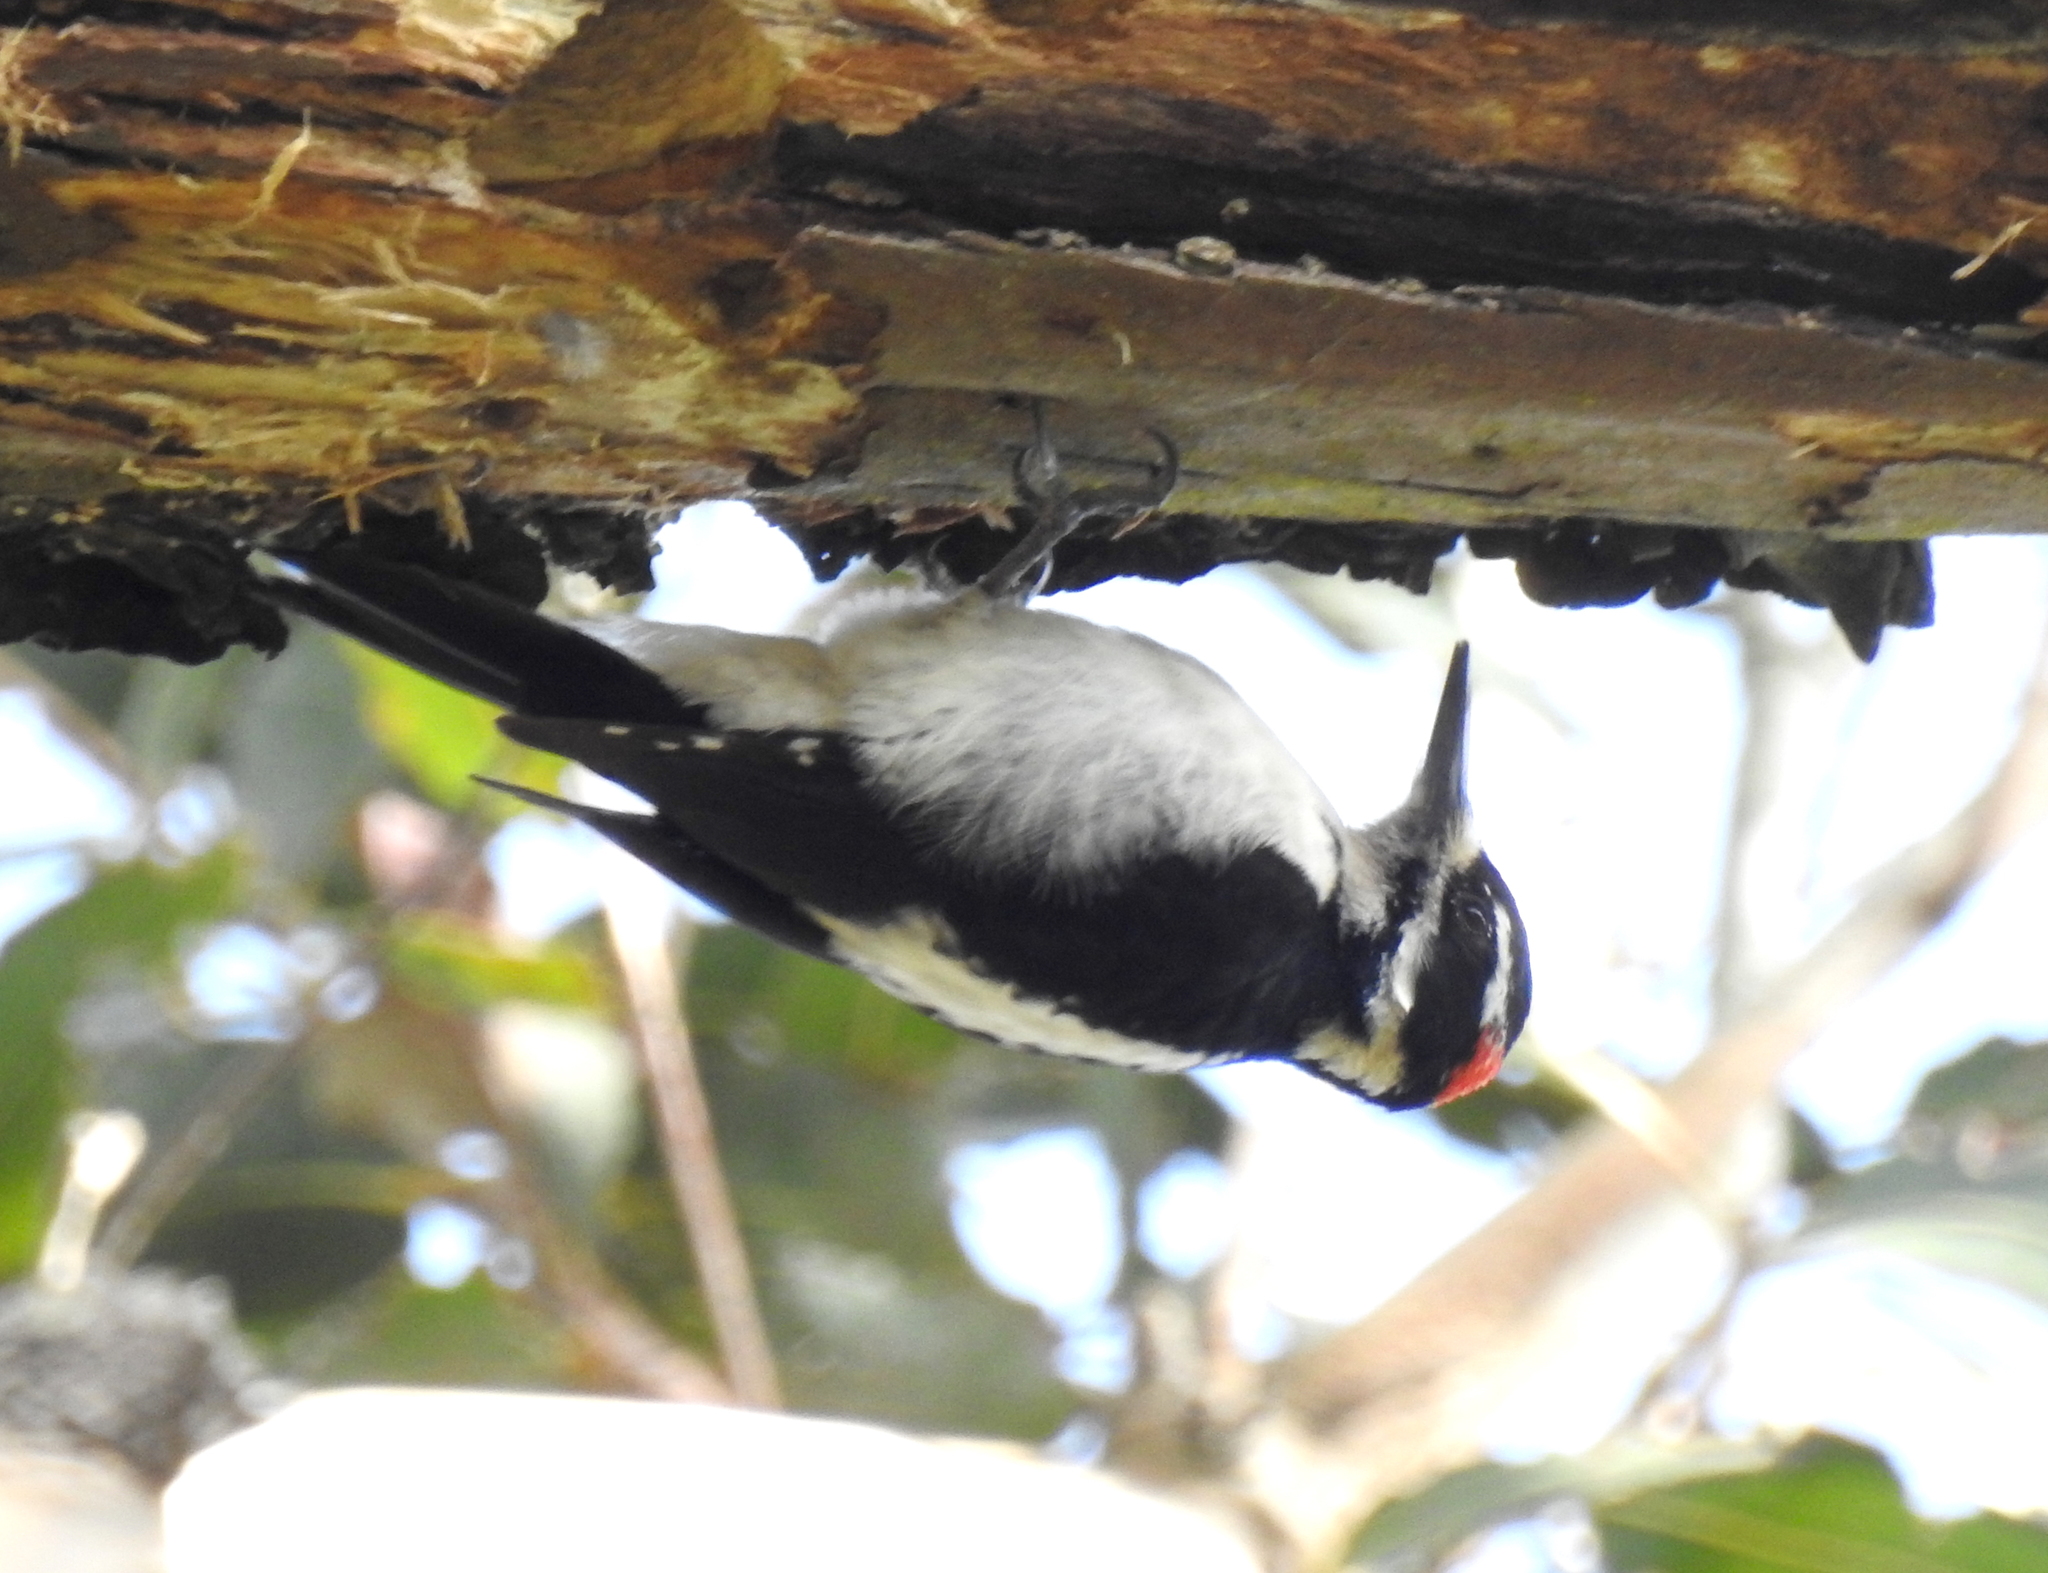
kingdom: Animalia
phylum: Chordata
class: Aves
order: Piciformes
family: Picidae
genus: Leuconotopicus
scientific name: Leuconotopicus villosus
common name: Hairy woodpecker
